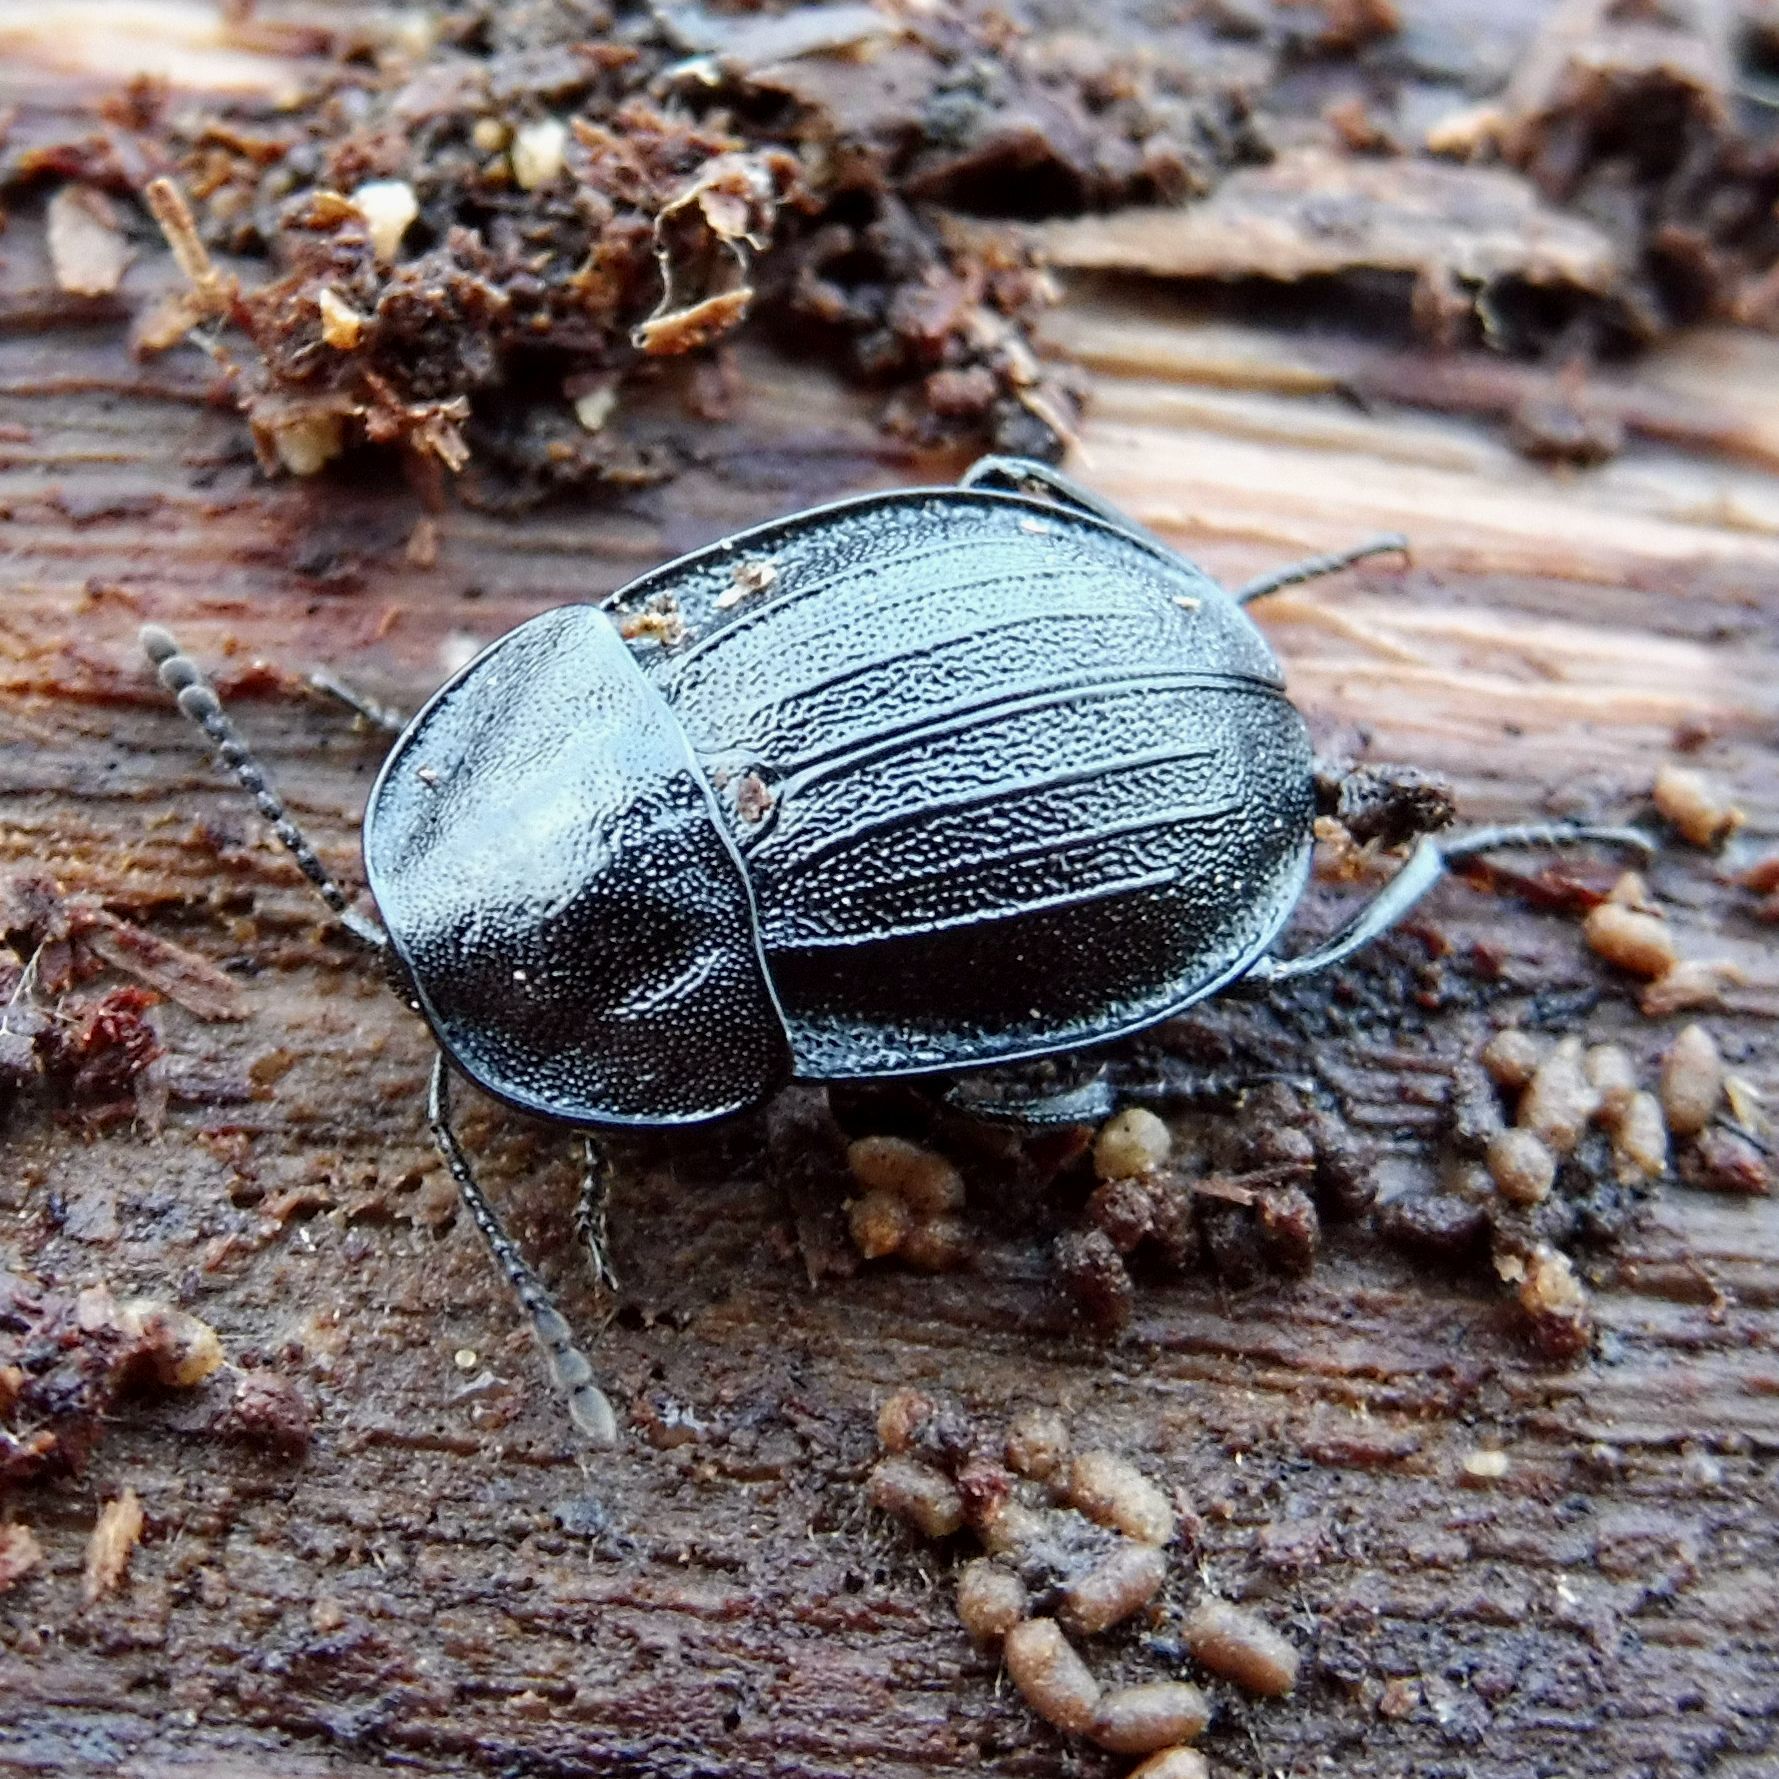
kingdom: Animalia
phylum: Arthropoda
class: Insecta
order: Coleoptera
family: Staphylinidae
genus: Silpha
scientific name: Silpha atrata
